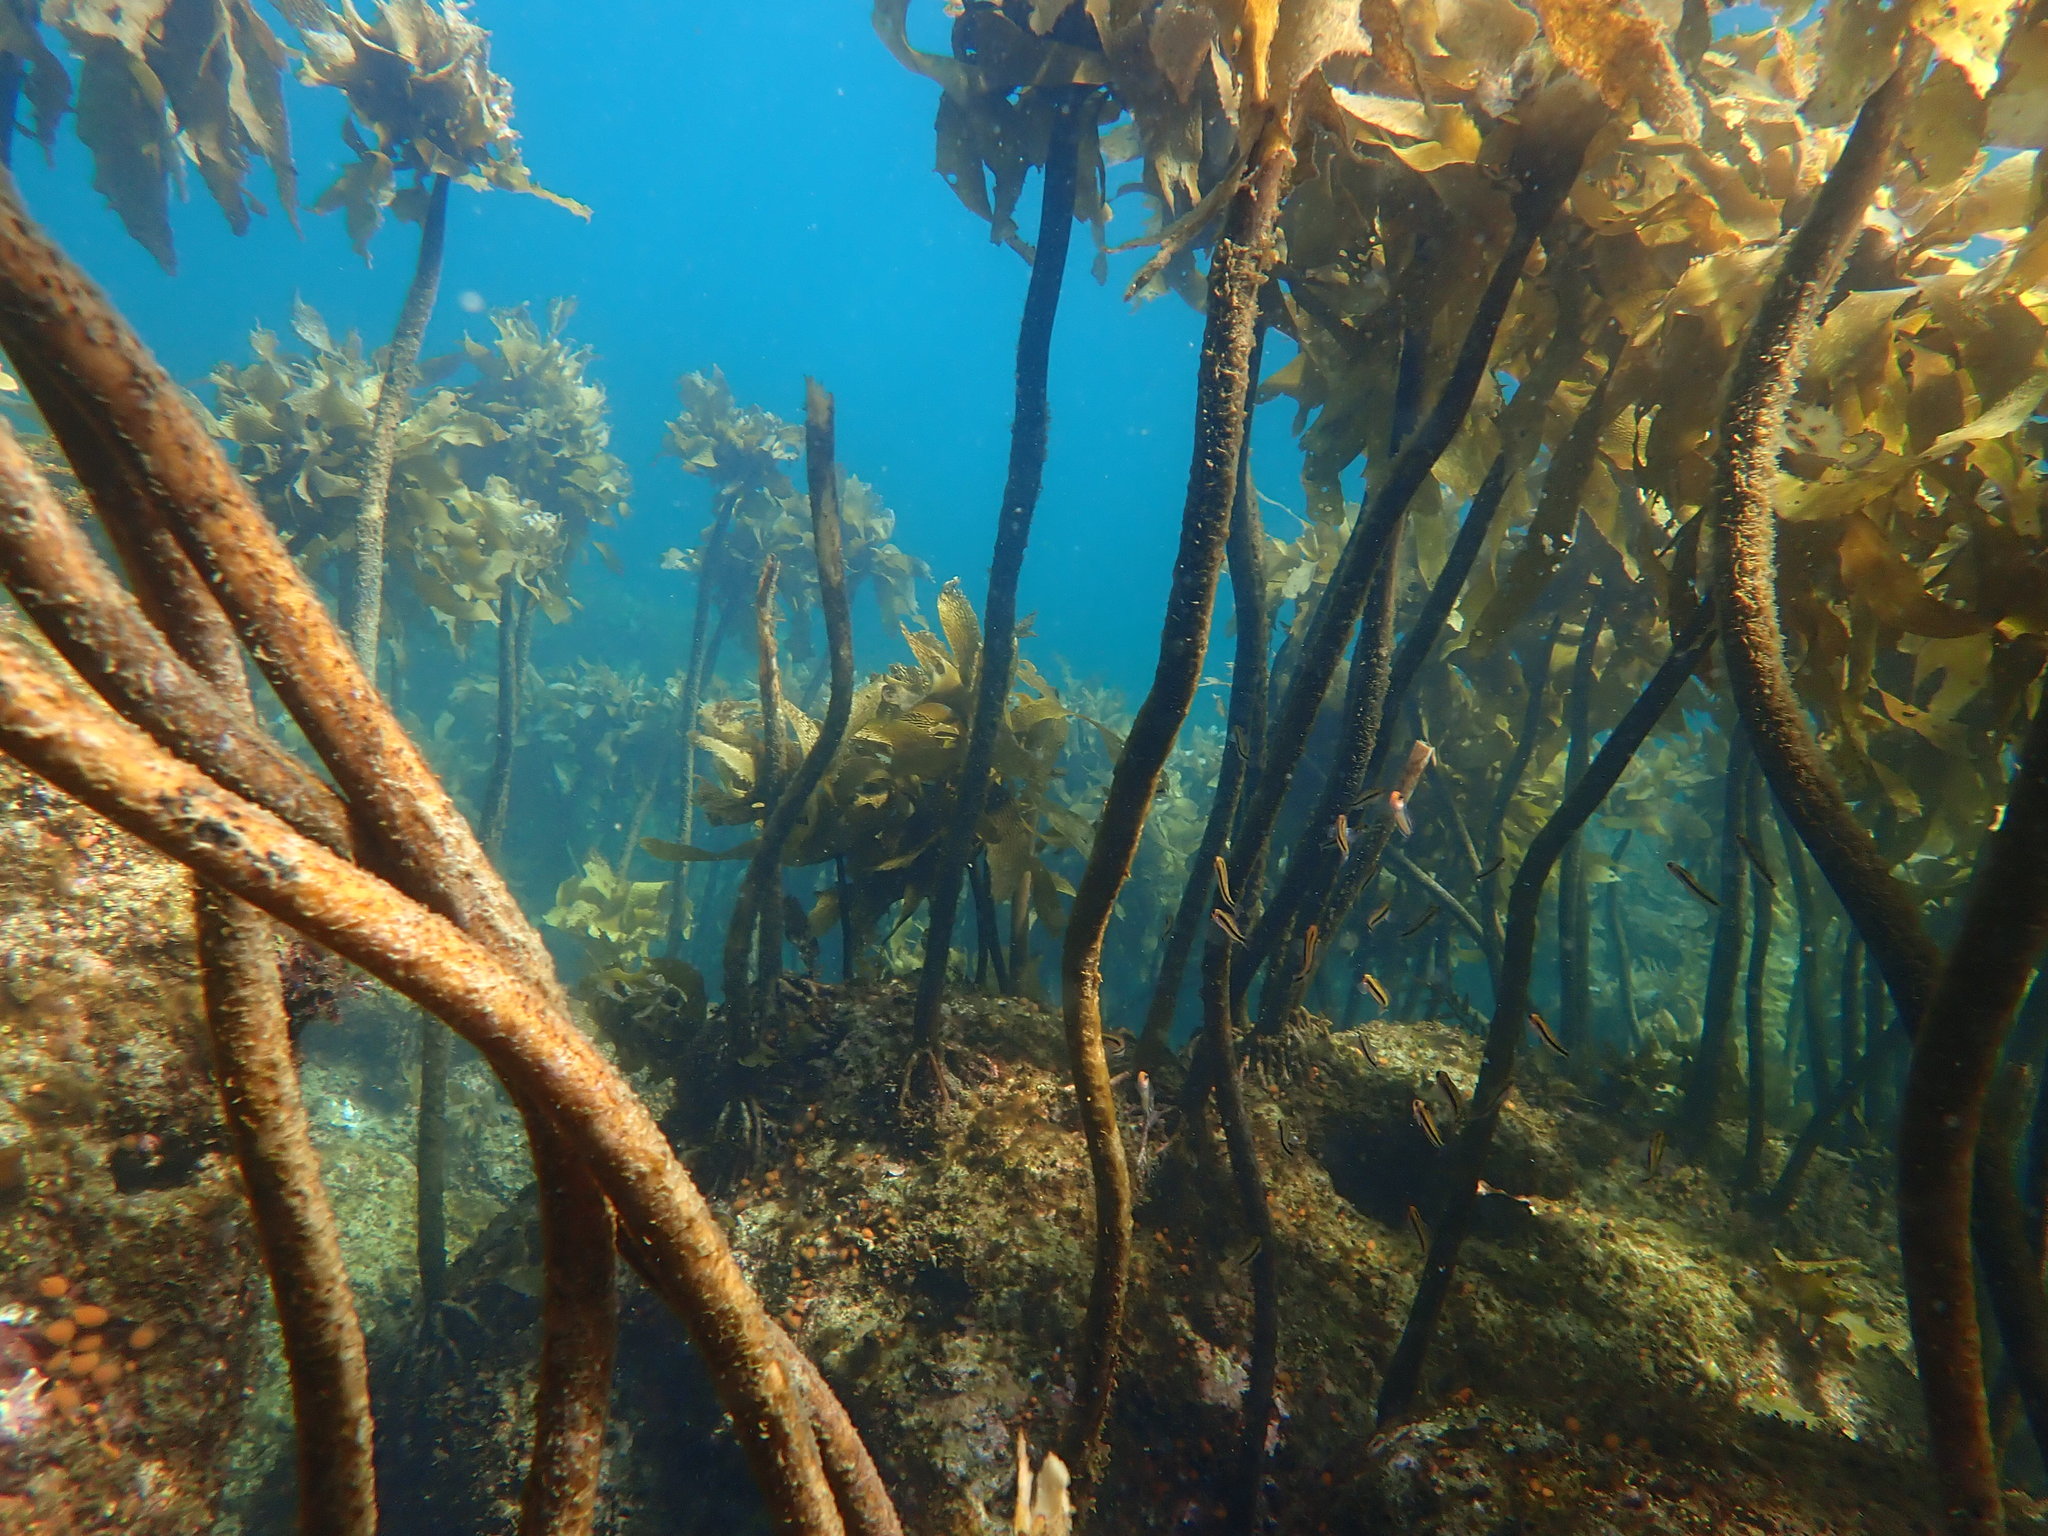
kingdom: Chromista
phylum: Ochrophyta
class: Phaeophyceae
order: Laminariales
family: Lessoniaceae
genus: Ecklonia
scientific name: Ecklonia radiata
